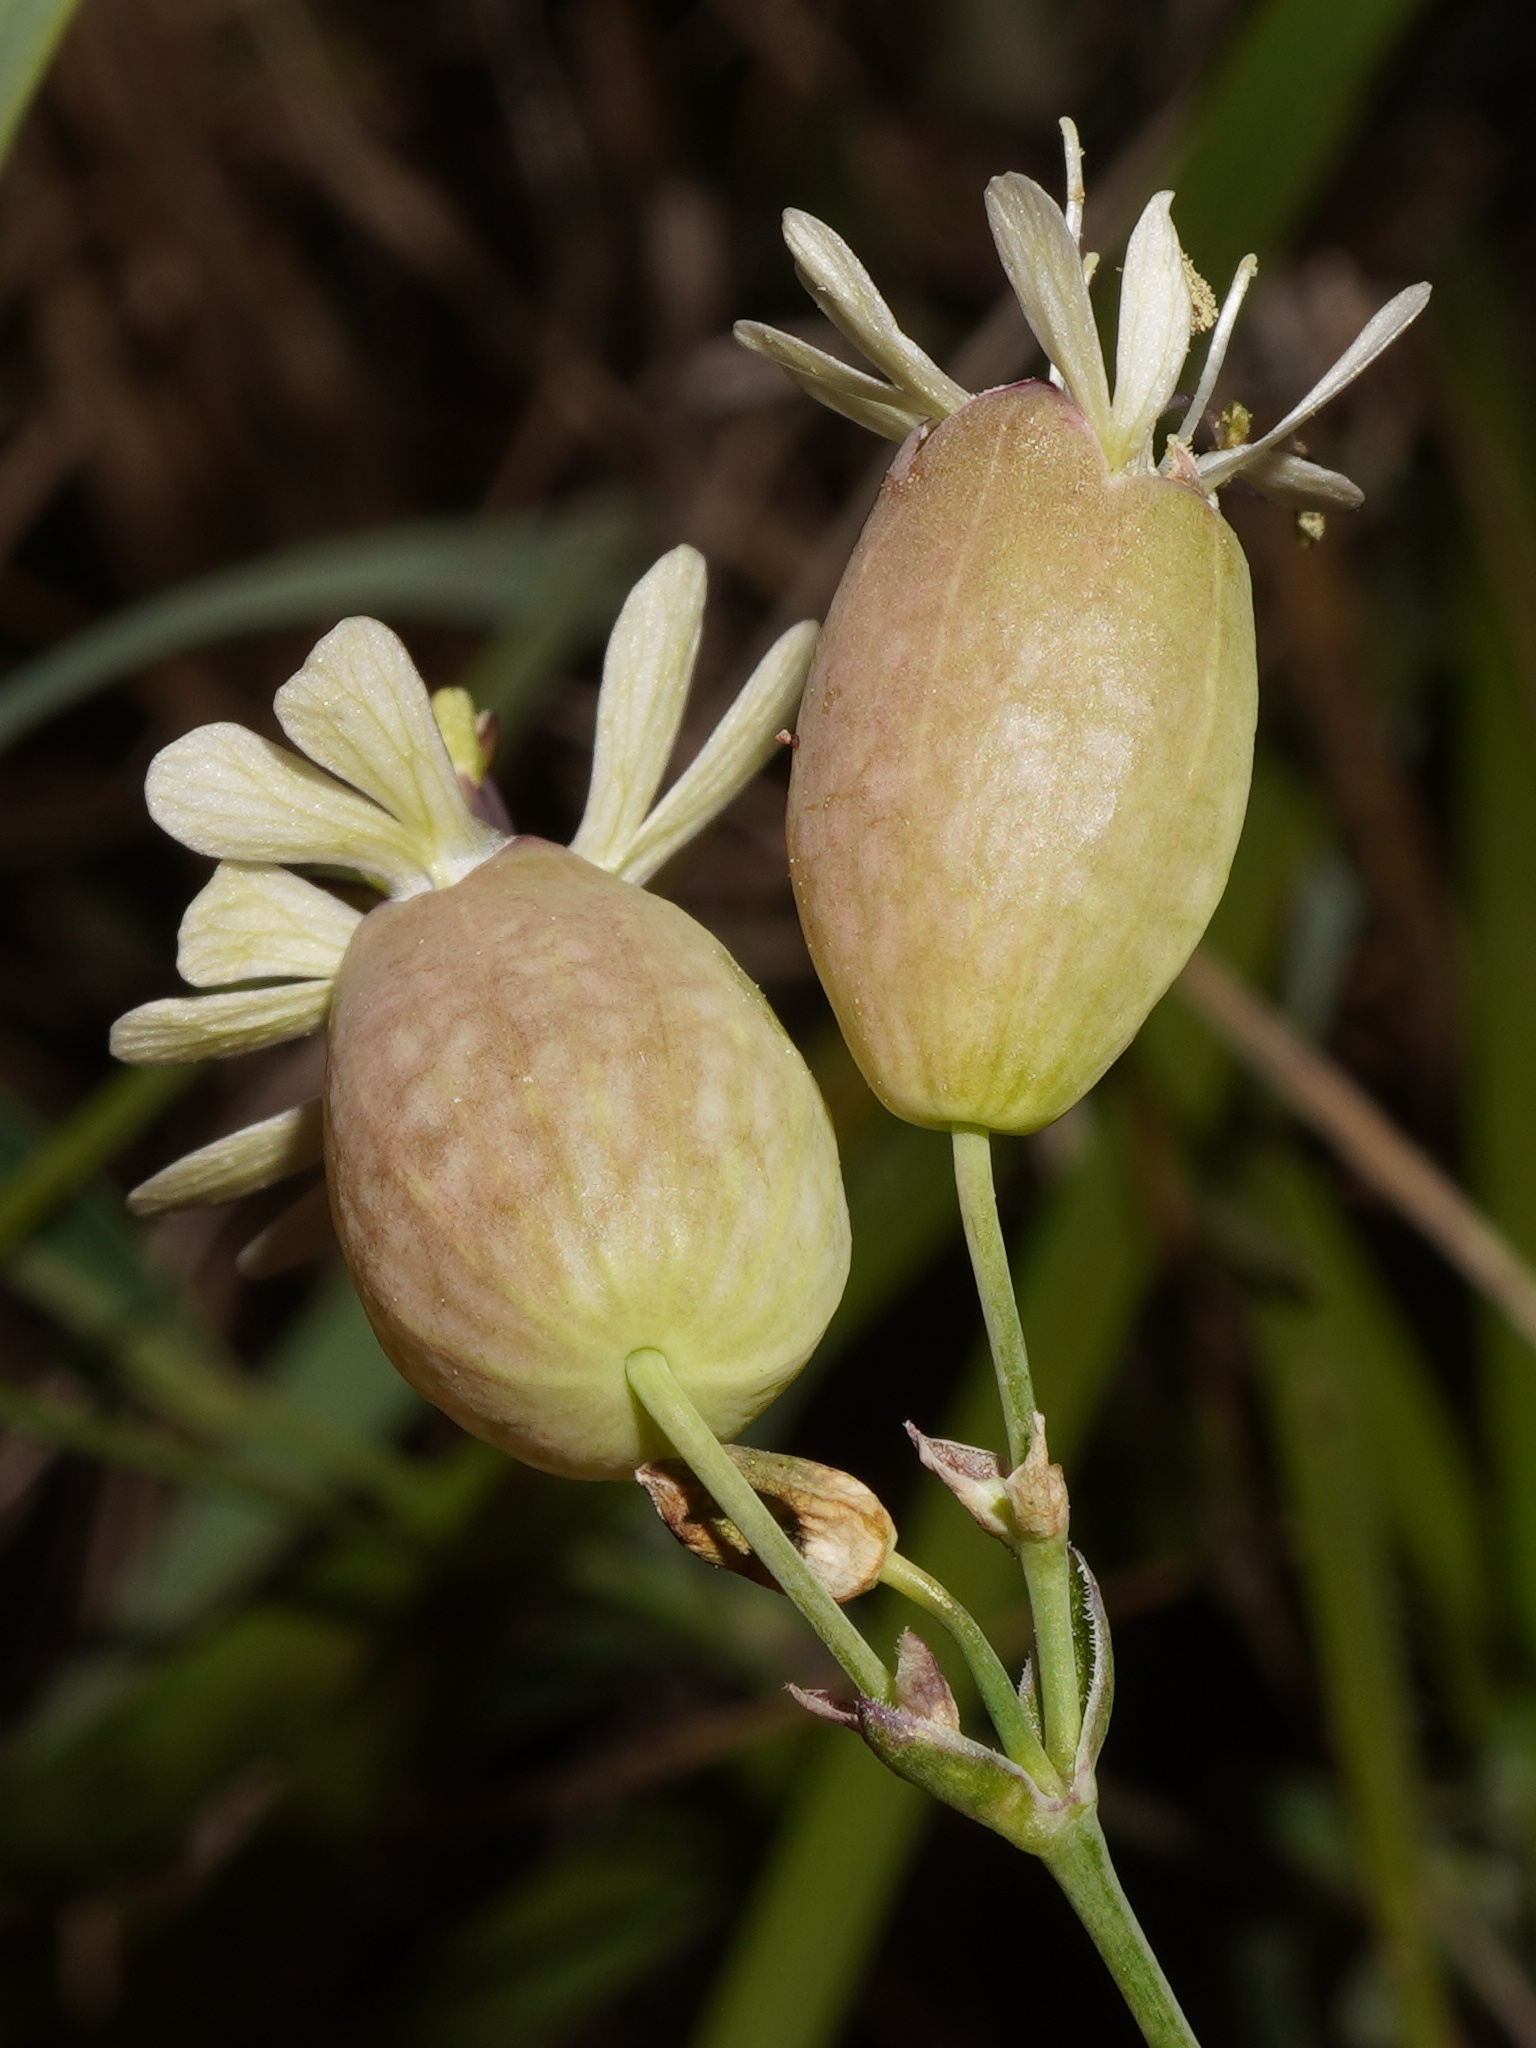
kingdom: Plantae
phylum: Tracheophyta
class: Magnoliopsida
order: Caryophyllales
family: Caryophyllaceae
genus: Silene
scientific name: Silene vulgaris
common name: Bladder campion
